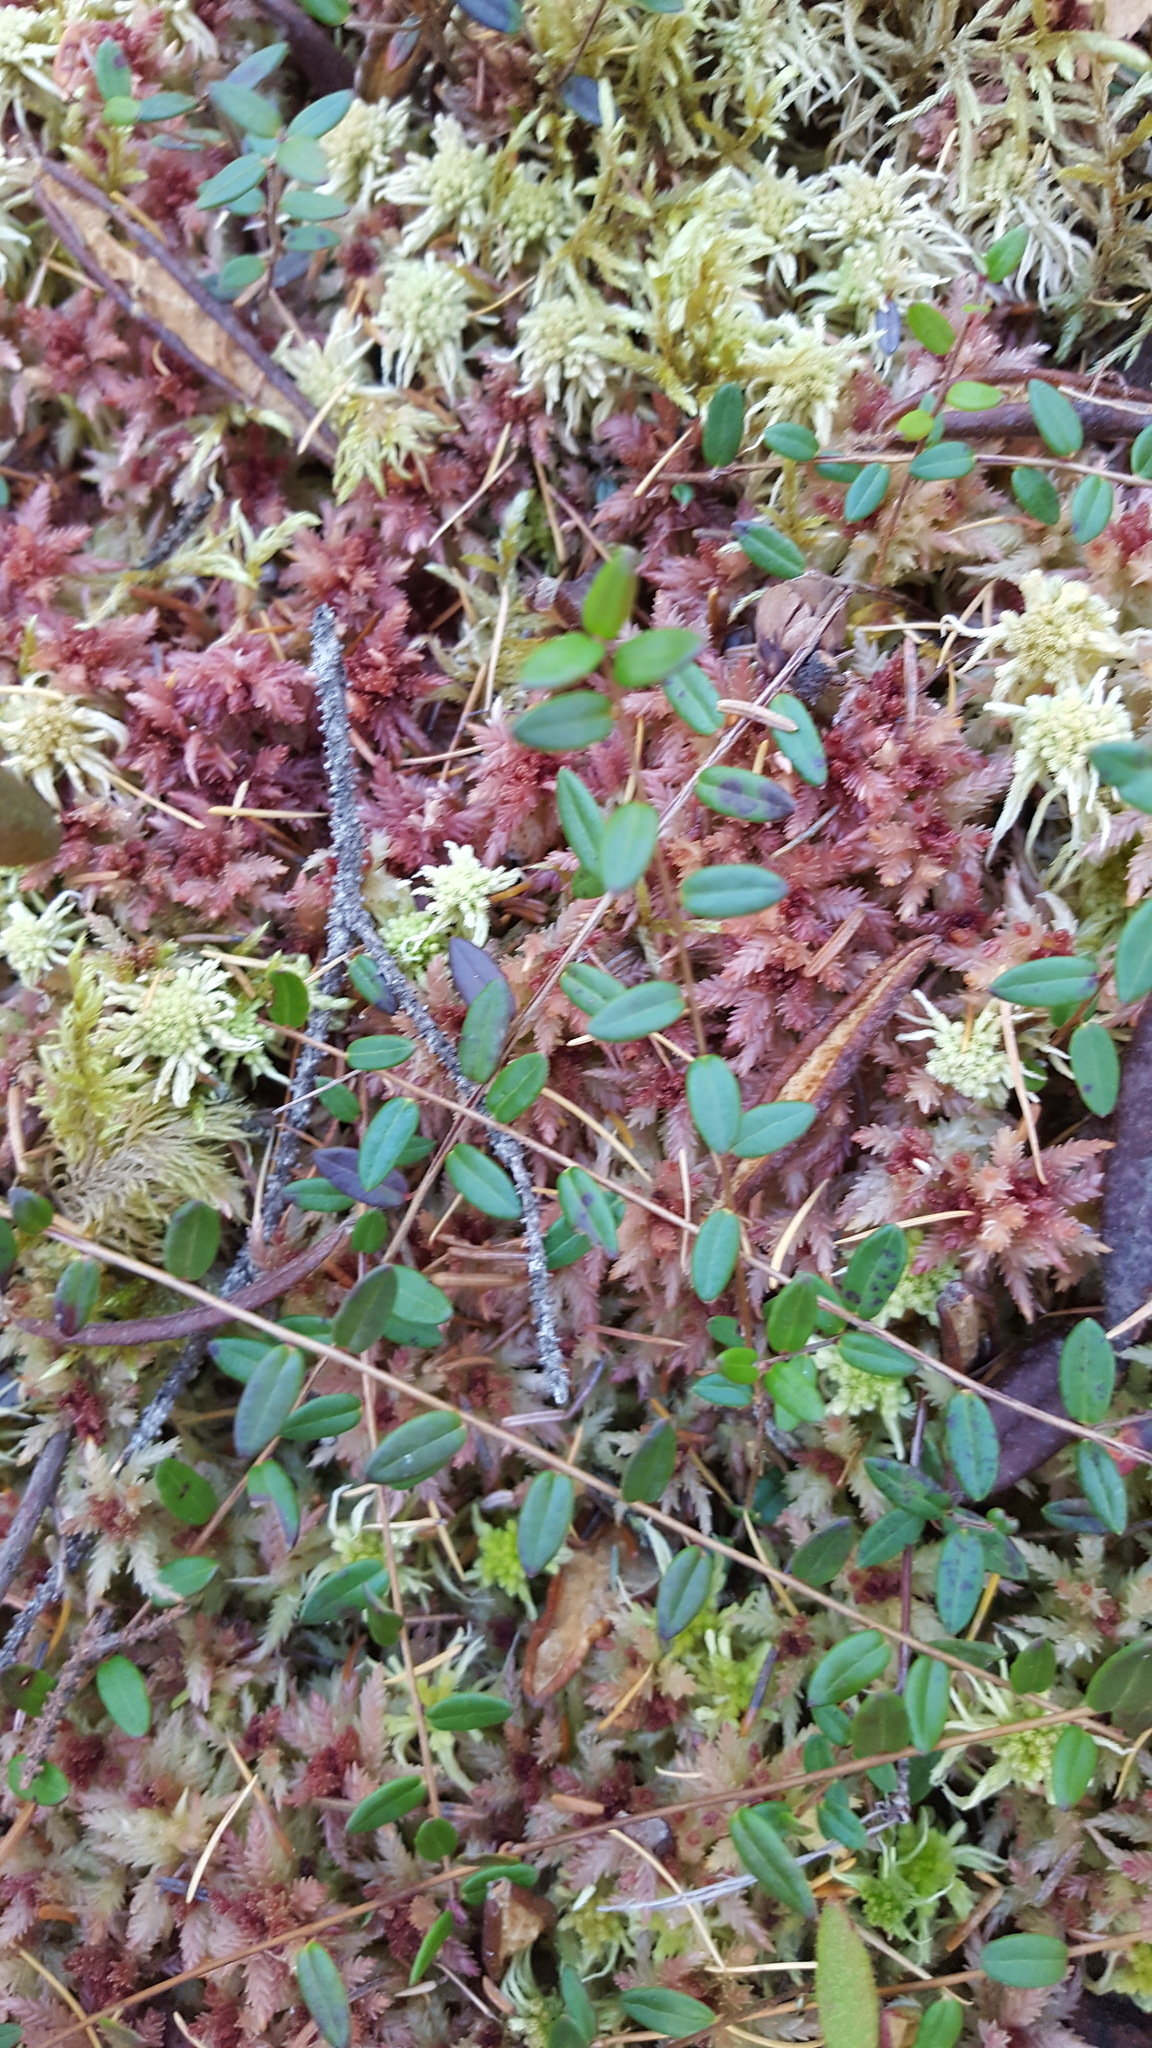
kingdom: Plantae
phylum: Tracheophyta
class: Magnoliopsida
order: Ericales
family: Ericaceae
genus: Vaccinium
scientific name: Vaccinium oxycoccos
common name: Cranberry
